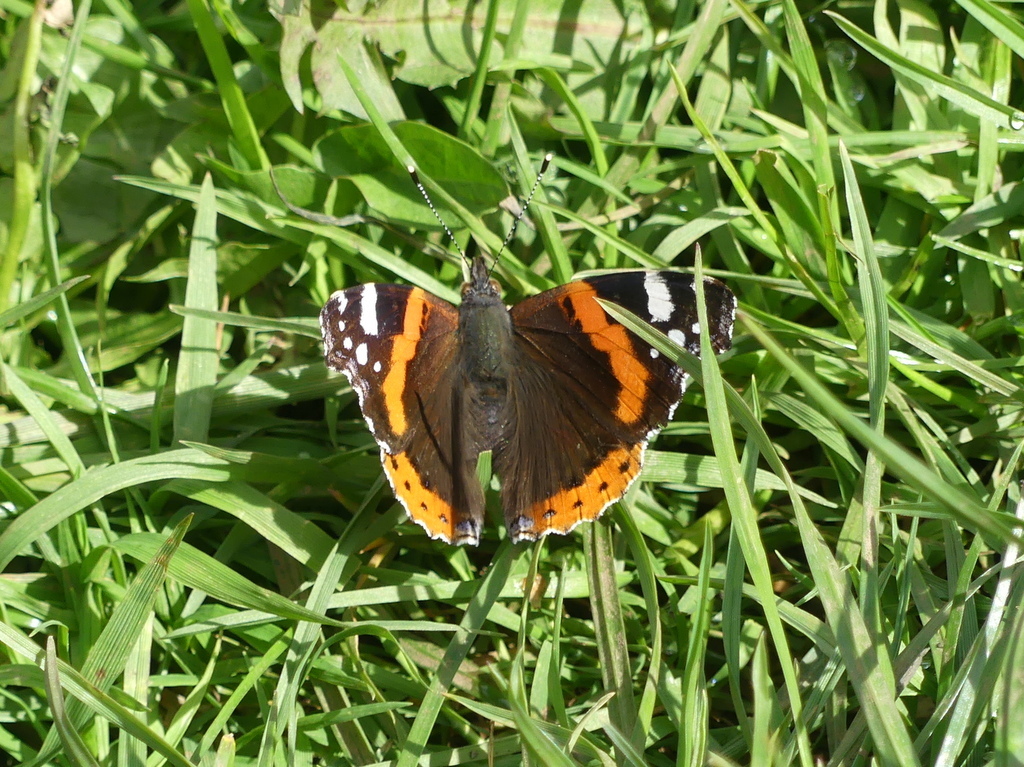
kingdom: Animalia
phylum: Arthropoda
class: Insecta
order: Lepidoptera
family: Nymphalidae
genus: Vanessa
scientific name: Vanessa atalanta
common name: Red admiral
